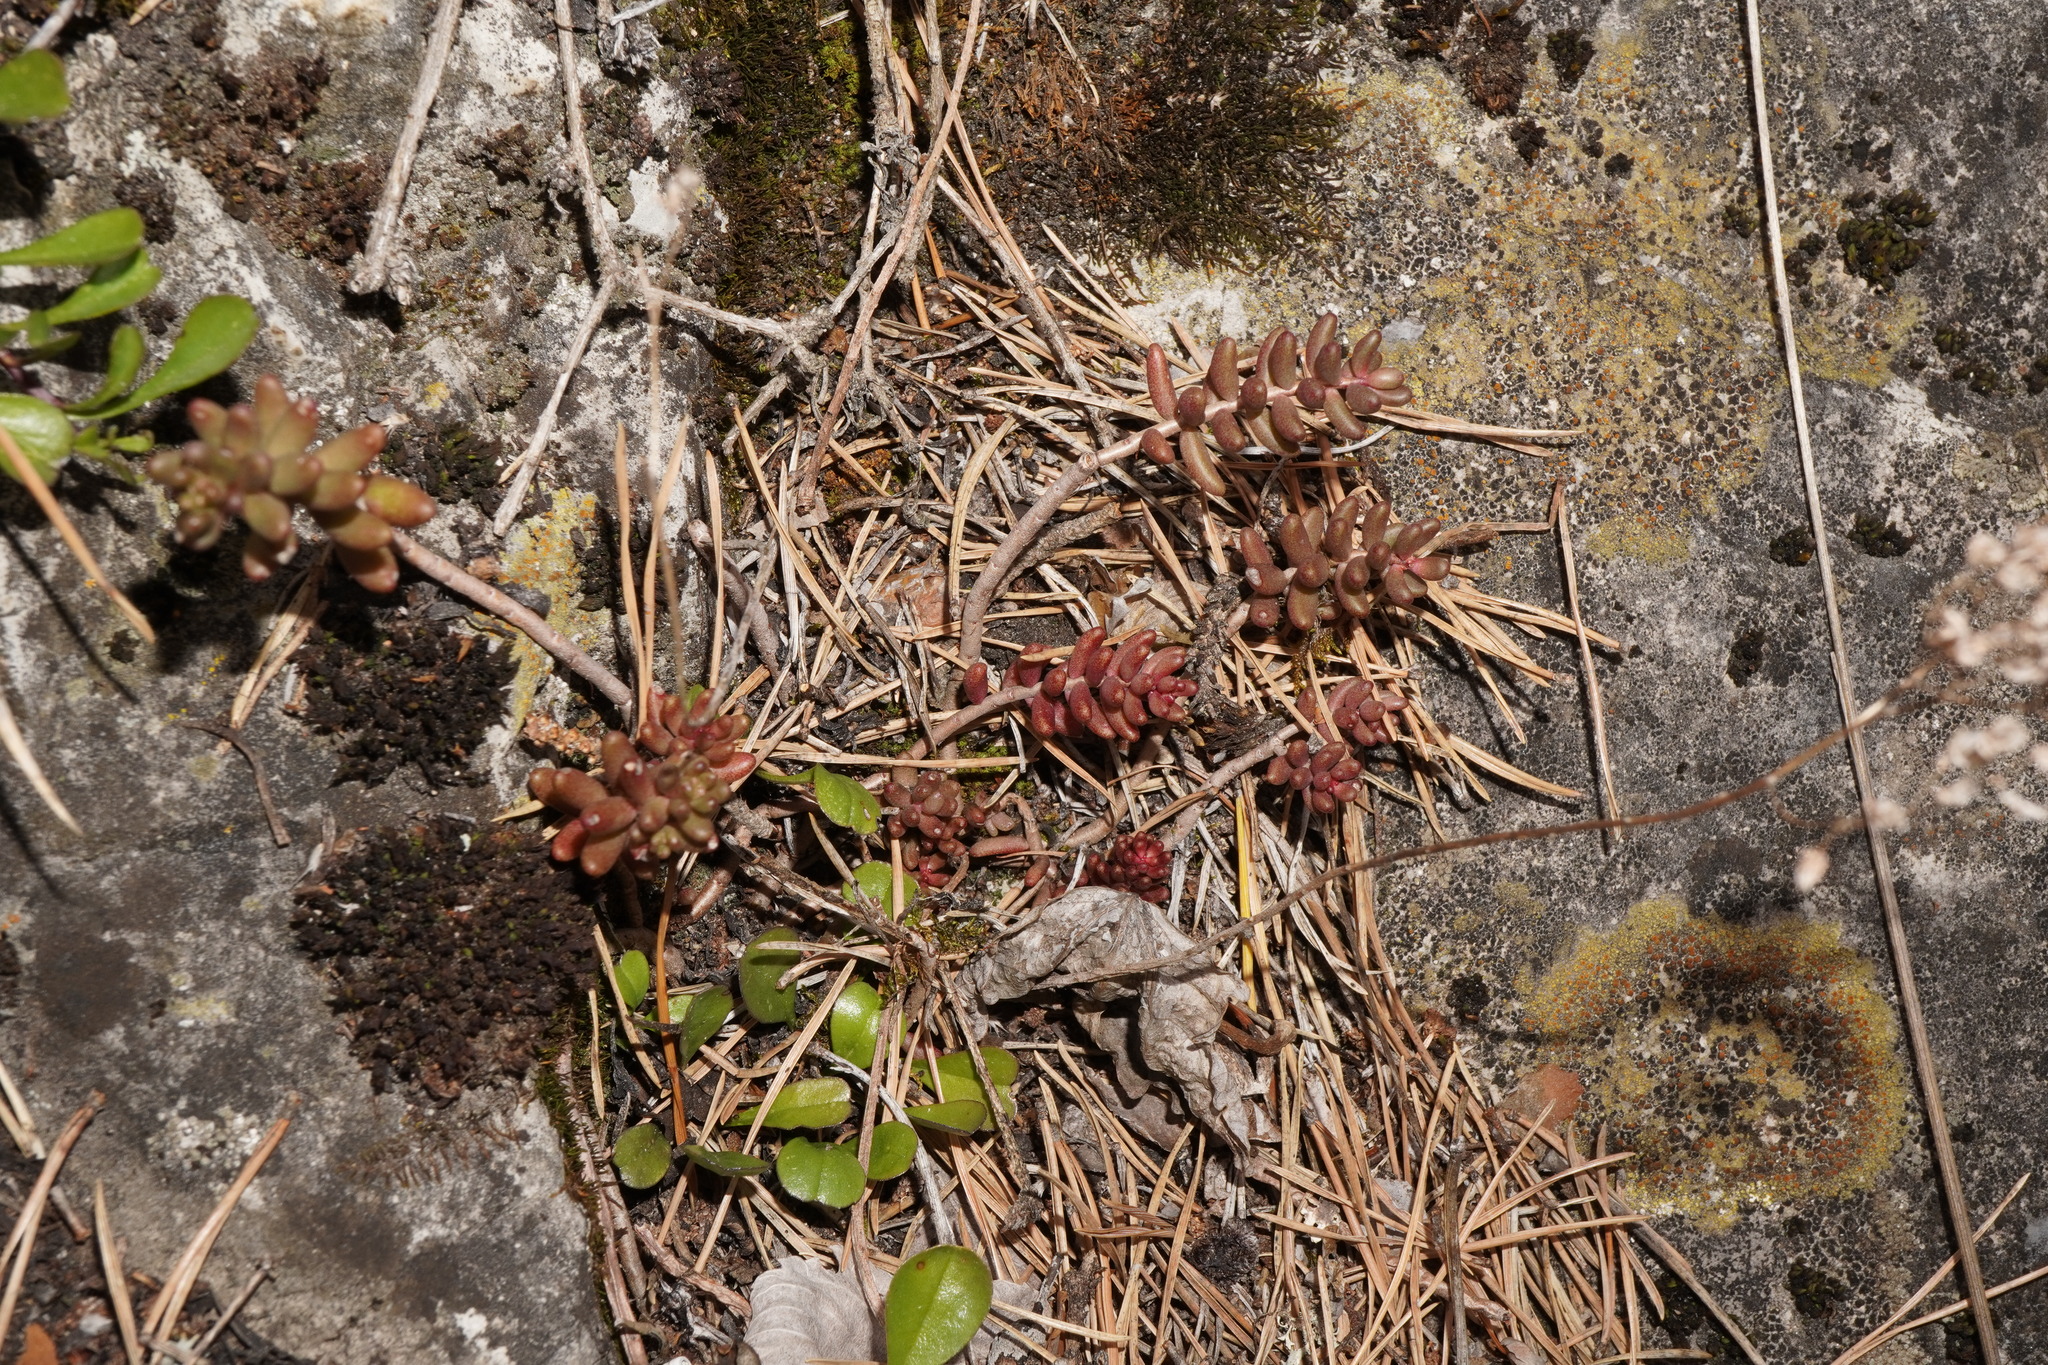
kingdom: Plantae
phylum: Tracheophyta
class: Magnoliopsida
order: Saxifragales
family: Crassulaceae
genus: Sedum
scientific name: Sedum album
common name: White stonecrop
